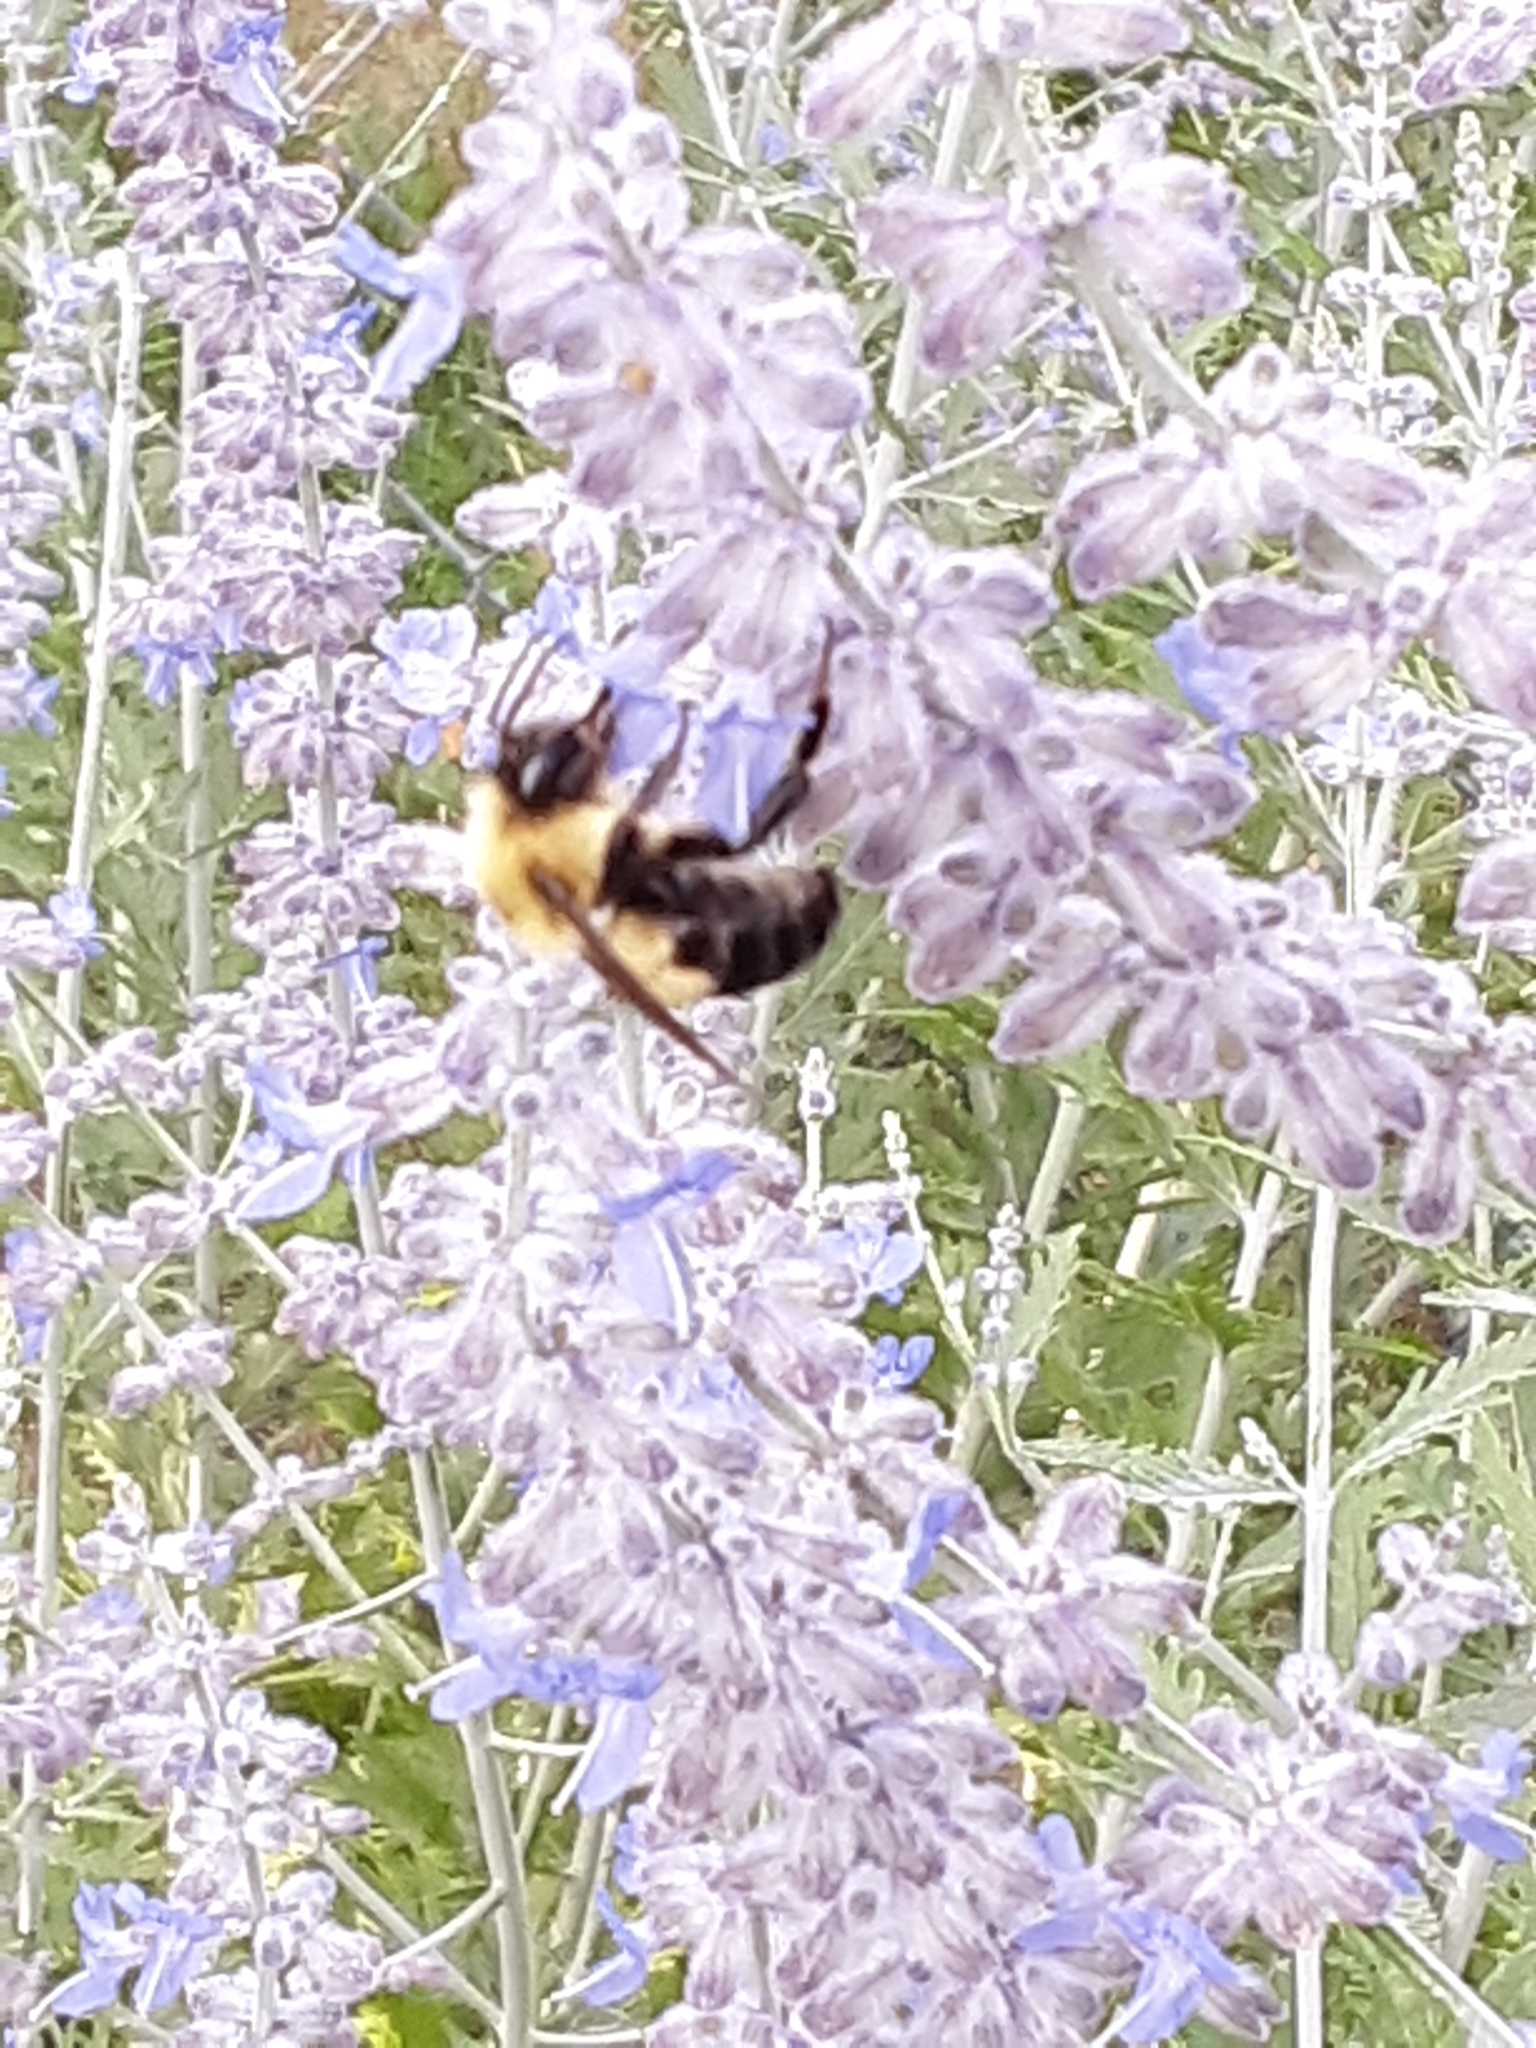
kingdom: Animalia
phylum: Arthropoda
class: Insecta
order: Hymenoptera
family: Apidae
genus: Bombus
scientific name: Bombus bimaculatus
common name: Two-spotted bumble bee
